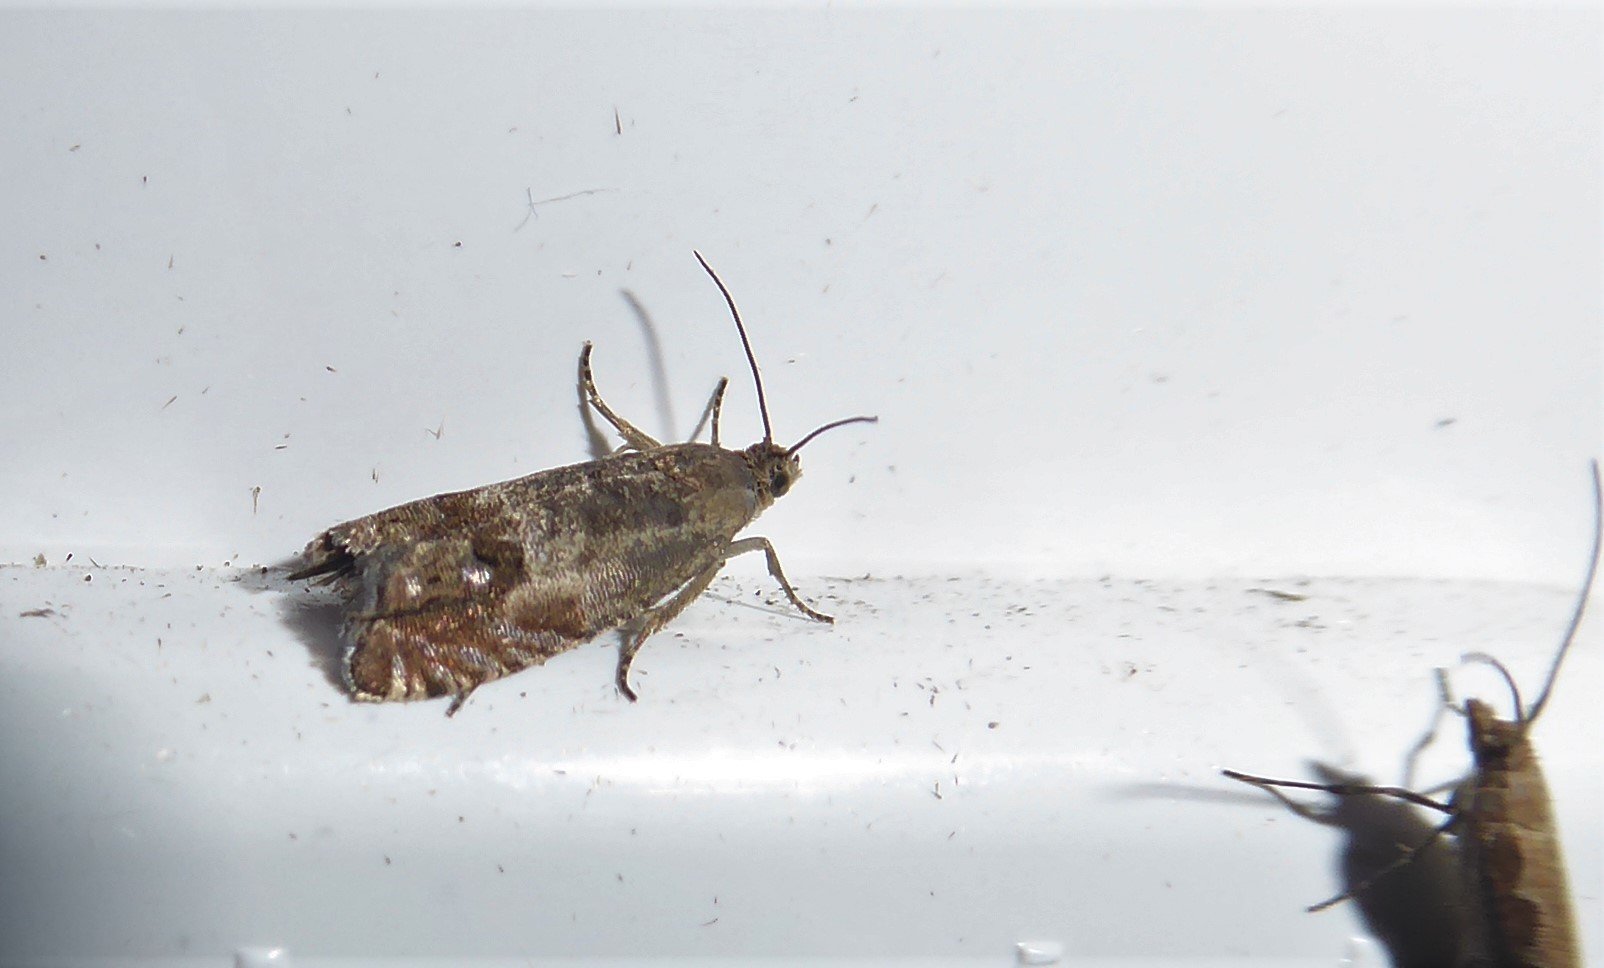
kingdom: Animalia
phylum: Arthropoda
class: Insecta
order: Lepidoptera
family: Tortricidae
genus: Cydia
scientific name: Cydia succedana
